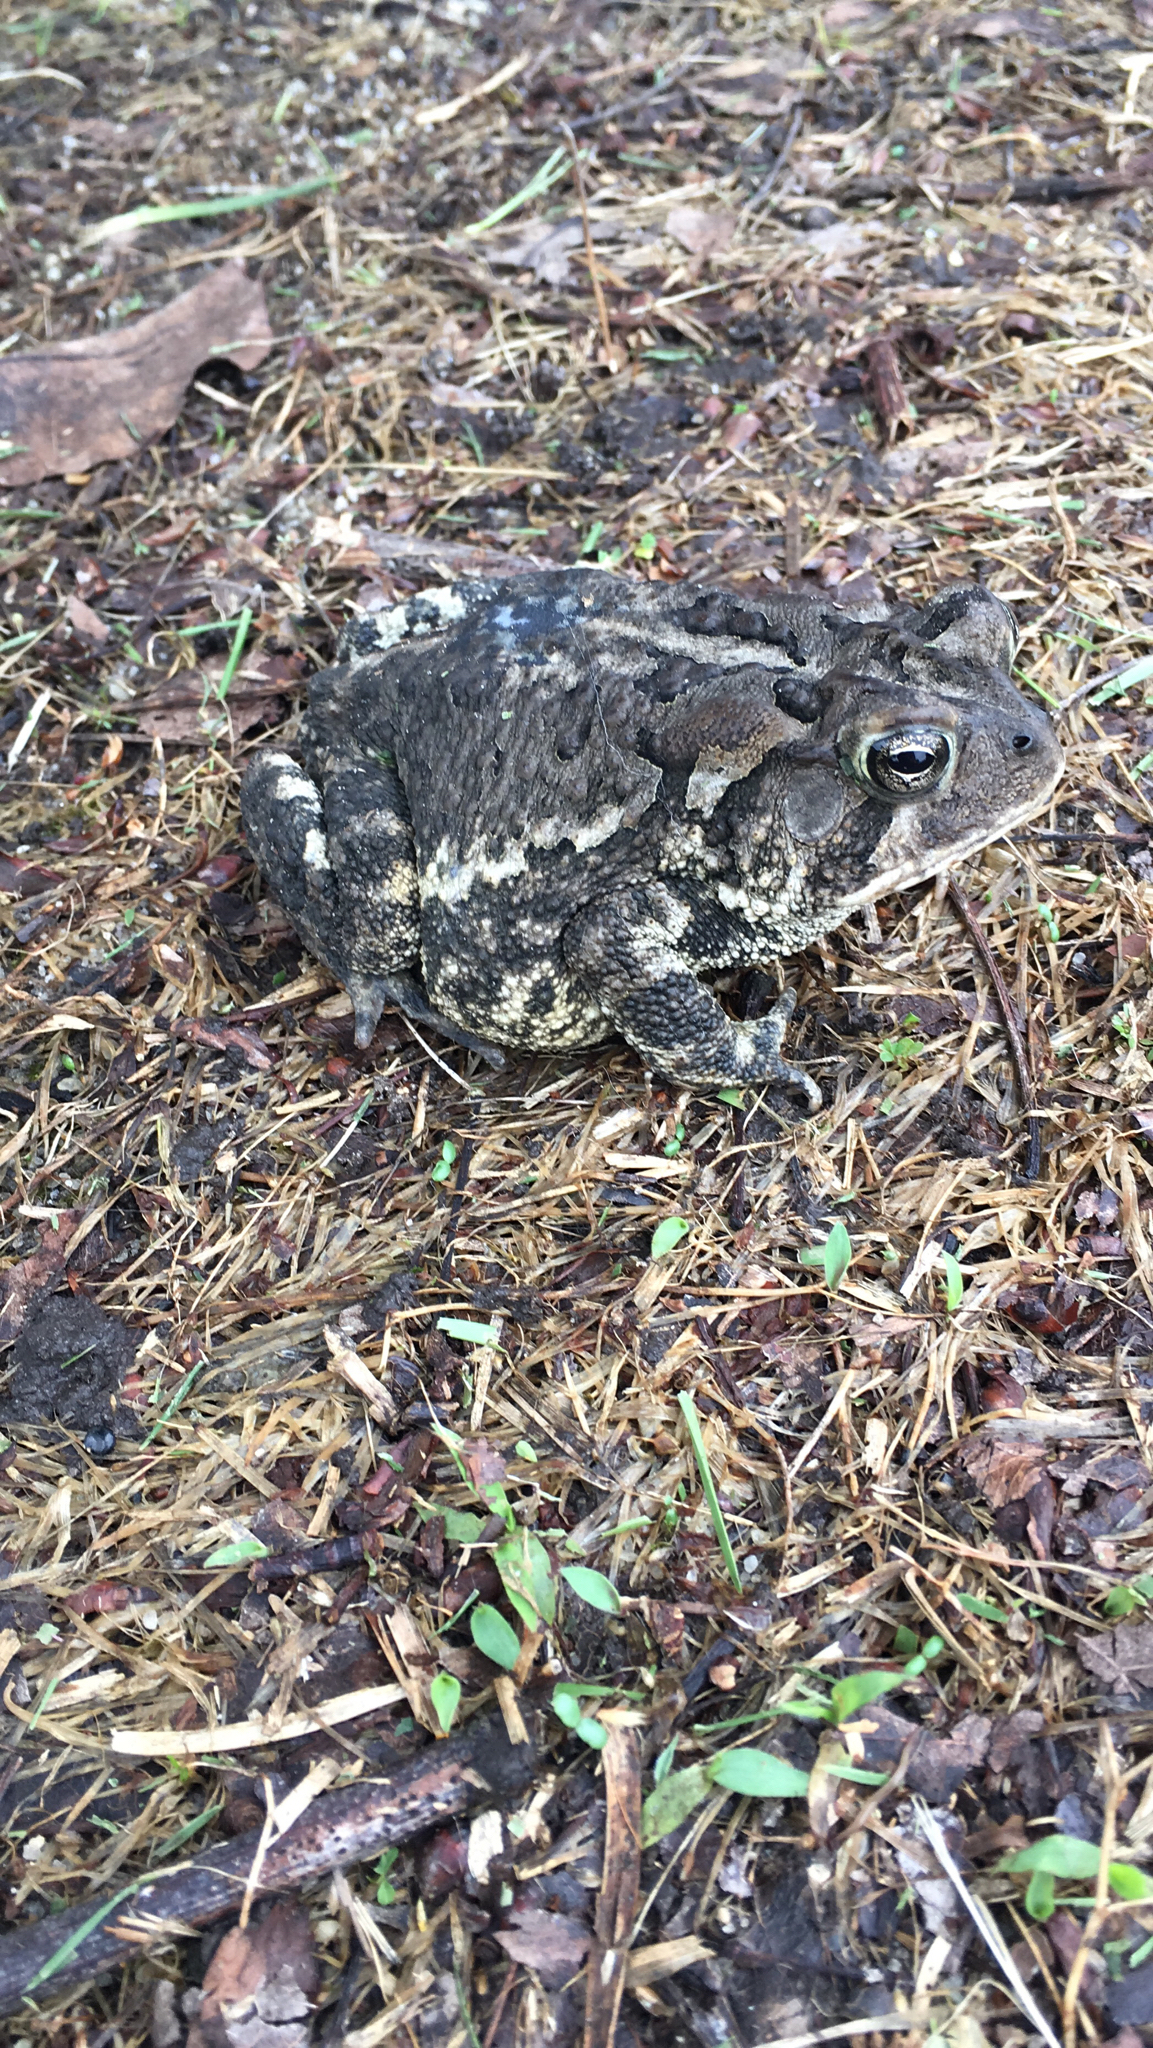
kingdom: Animalia
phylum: Chordata
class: Amphibia
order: Anura
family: Bufonidae
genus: Anaxyrus
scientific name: Anaxyrus terrestris
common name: Southern toad
